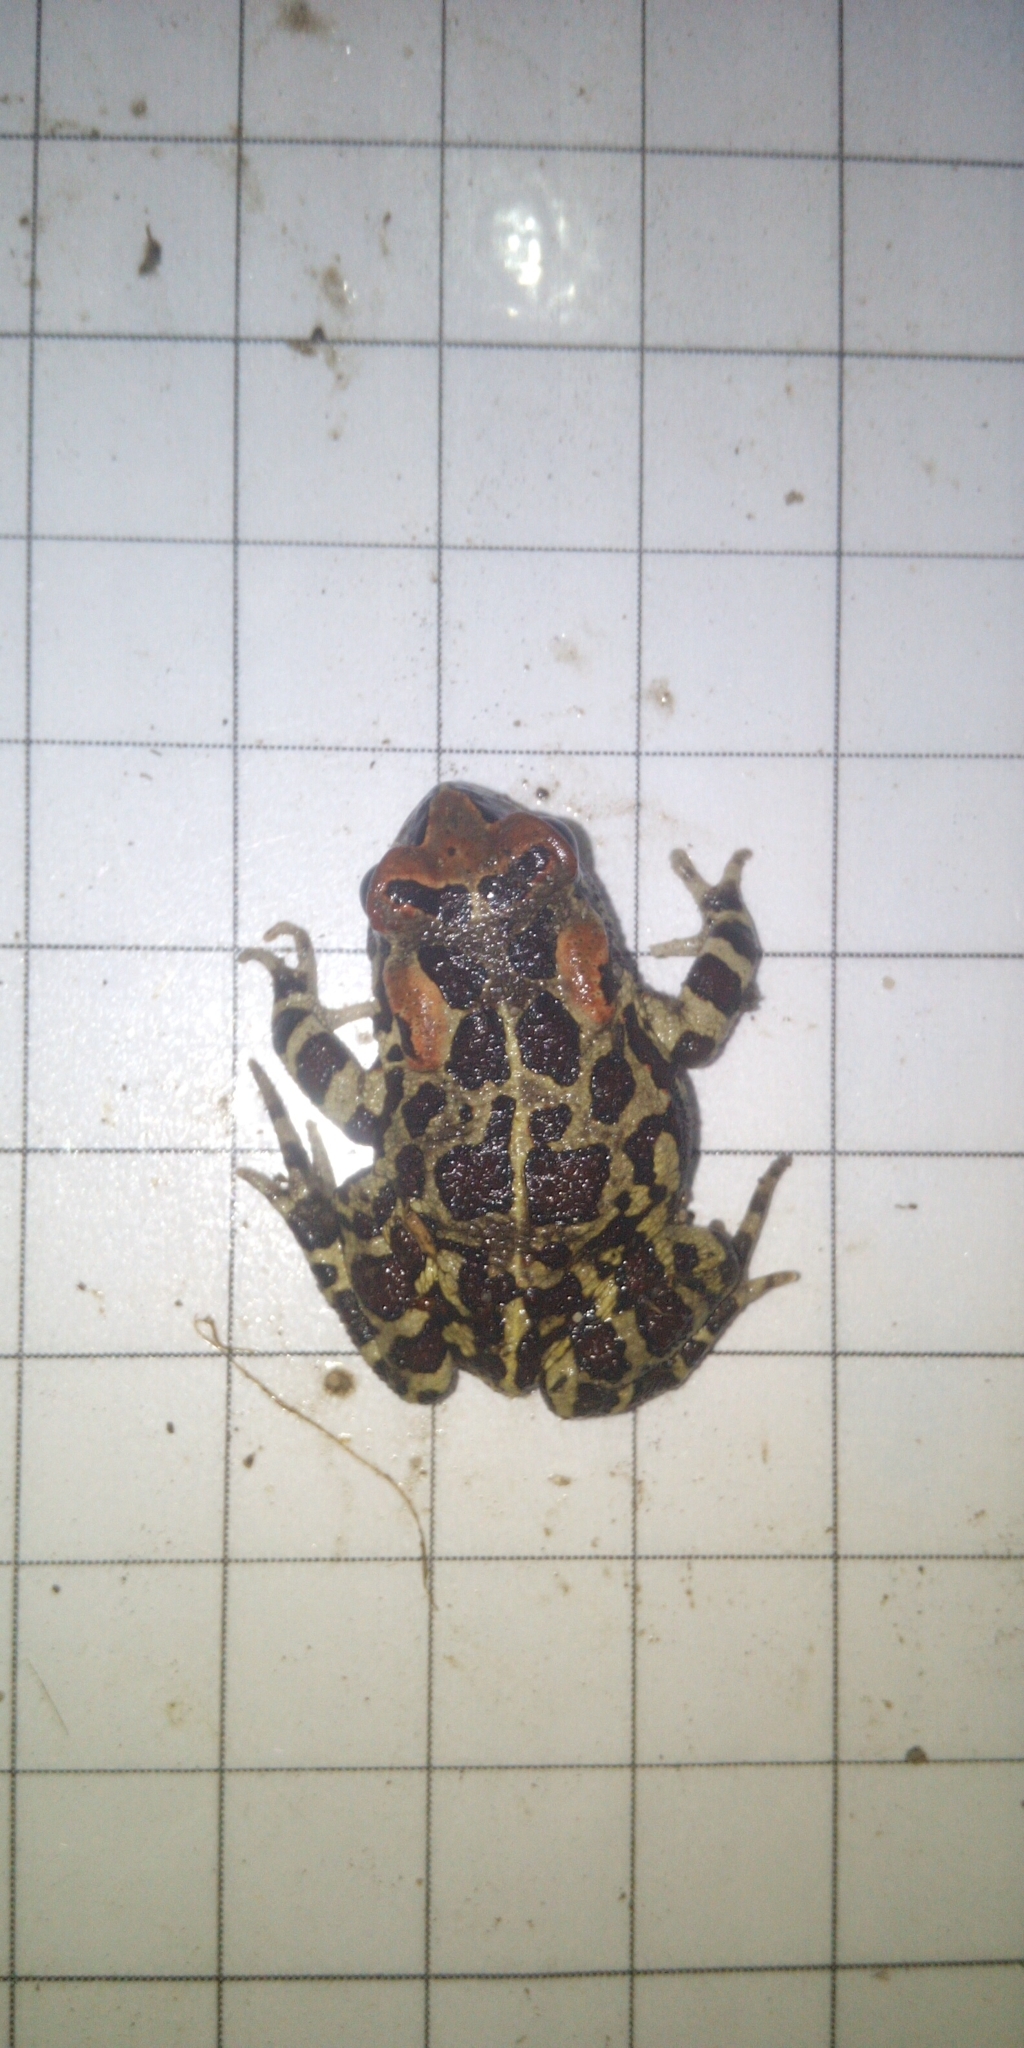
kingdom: Animalia
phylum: Chordata
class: Amphibia
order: Anura
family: Bufonidae
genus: Sclerophrys
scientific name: Sclerophrys pantherina
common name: Panther toad
